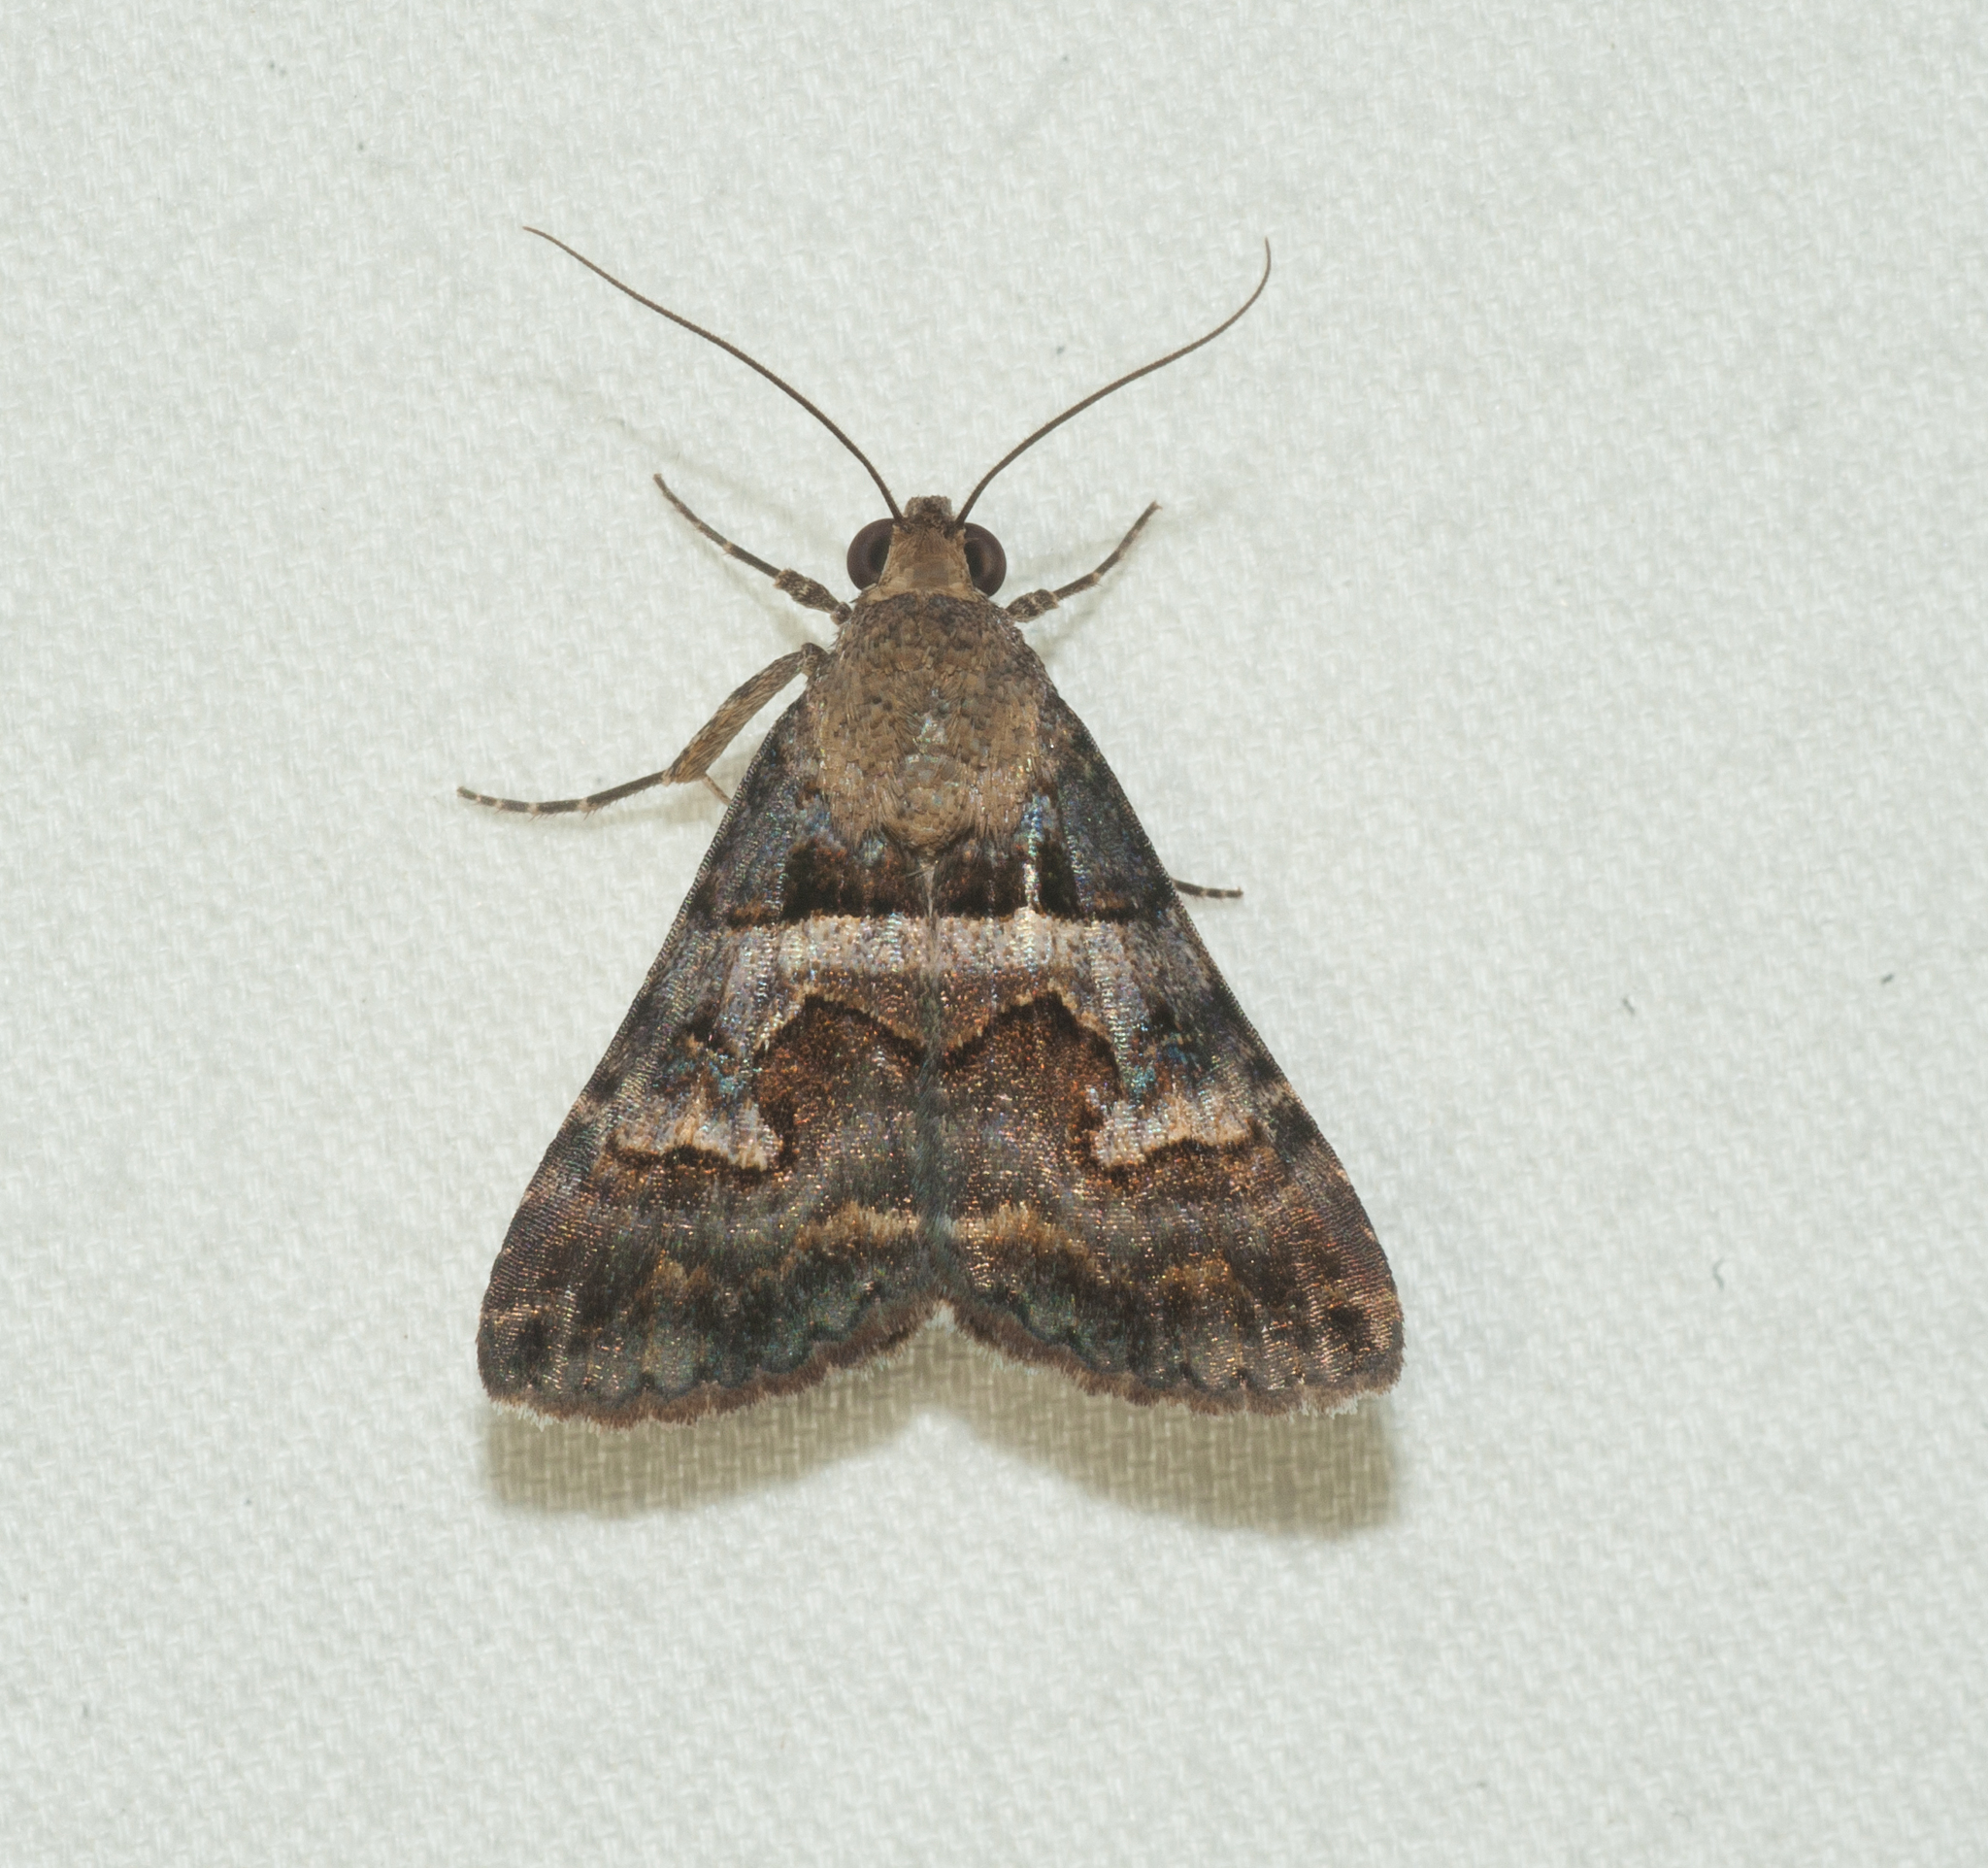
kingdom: Animalia
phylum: Arthropoda
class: Insecta
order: Lepidoptera
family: Erebidae
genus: Bulia
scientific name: Bulia brunnearis
